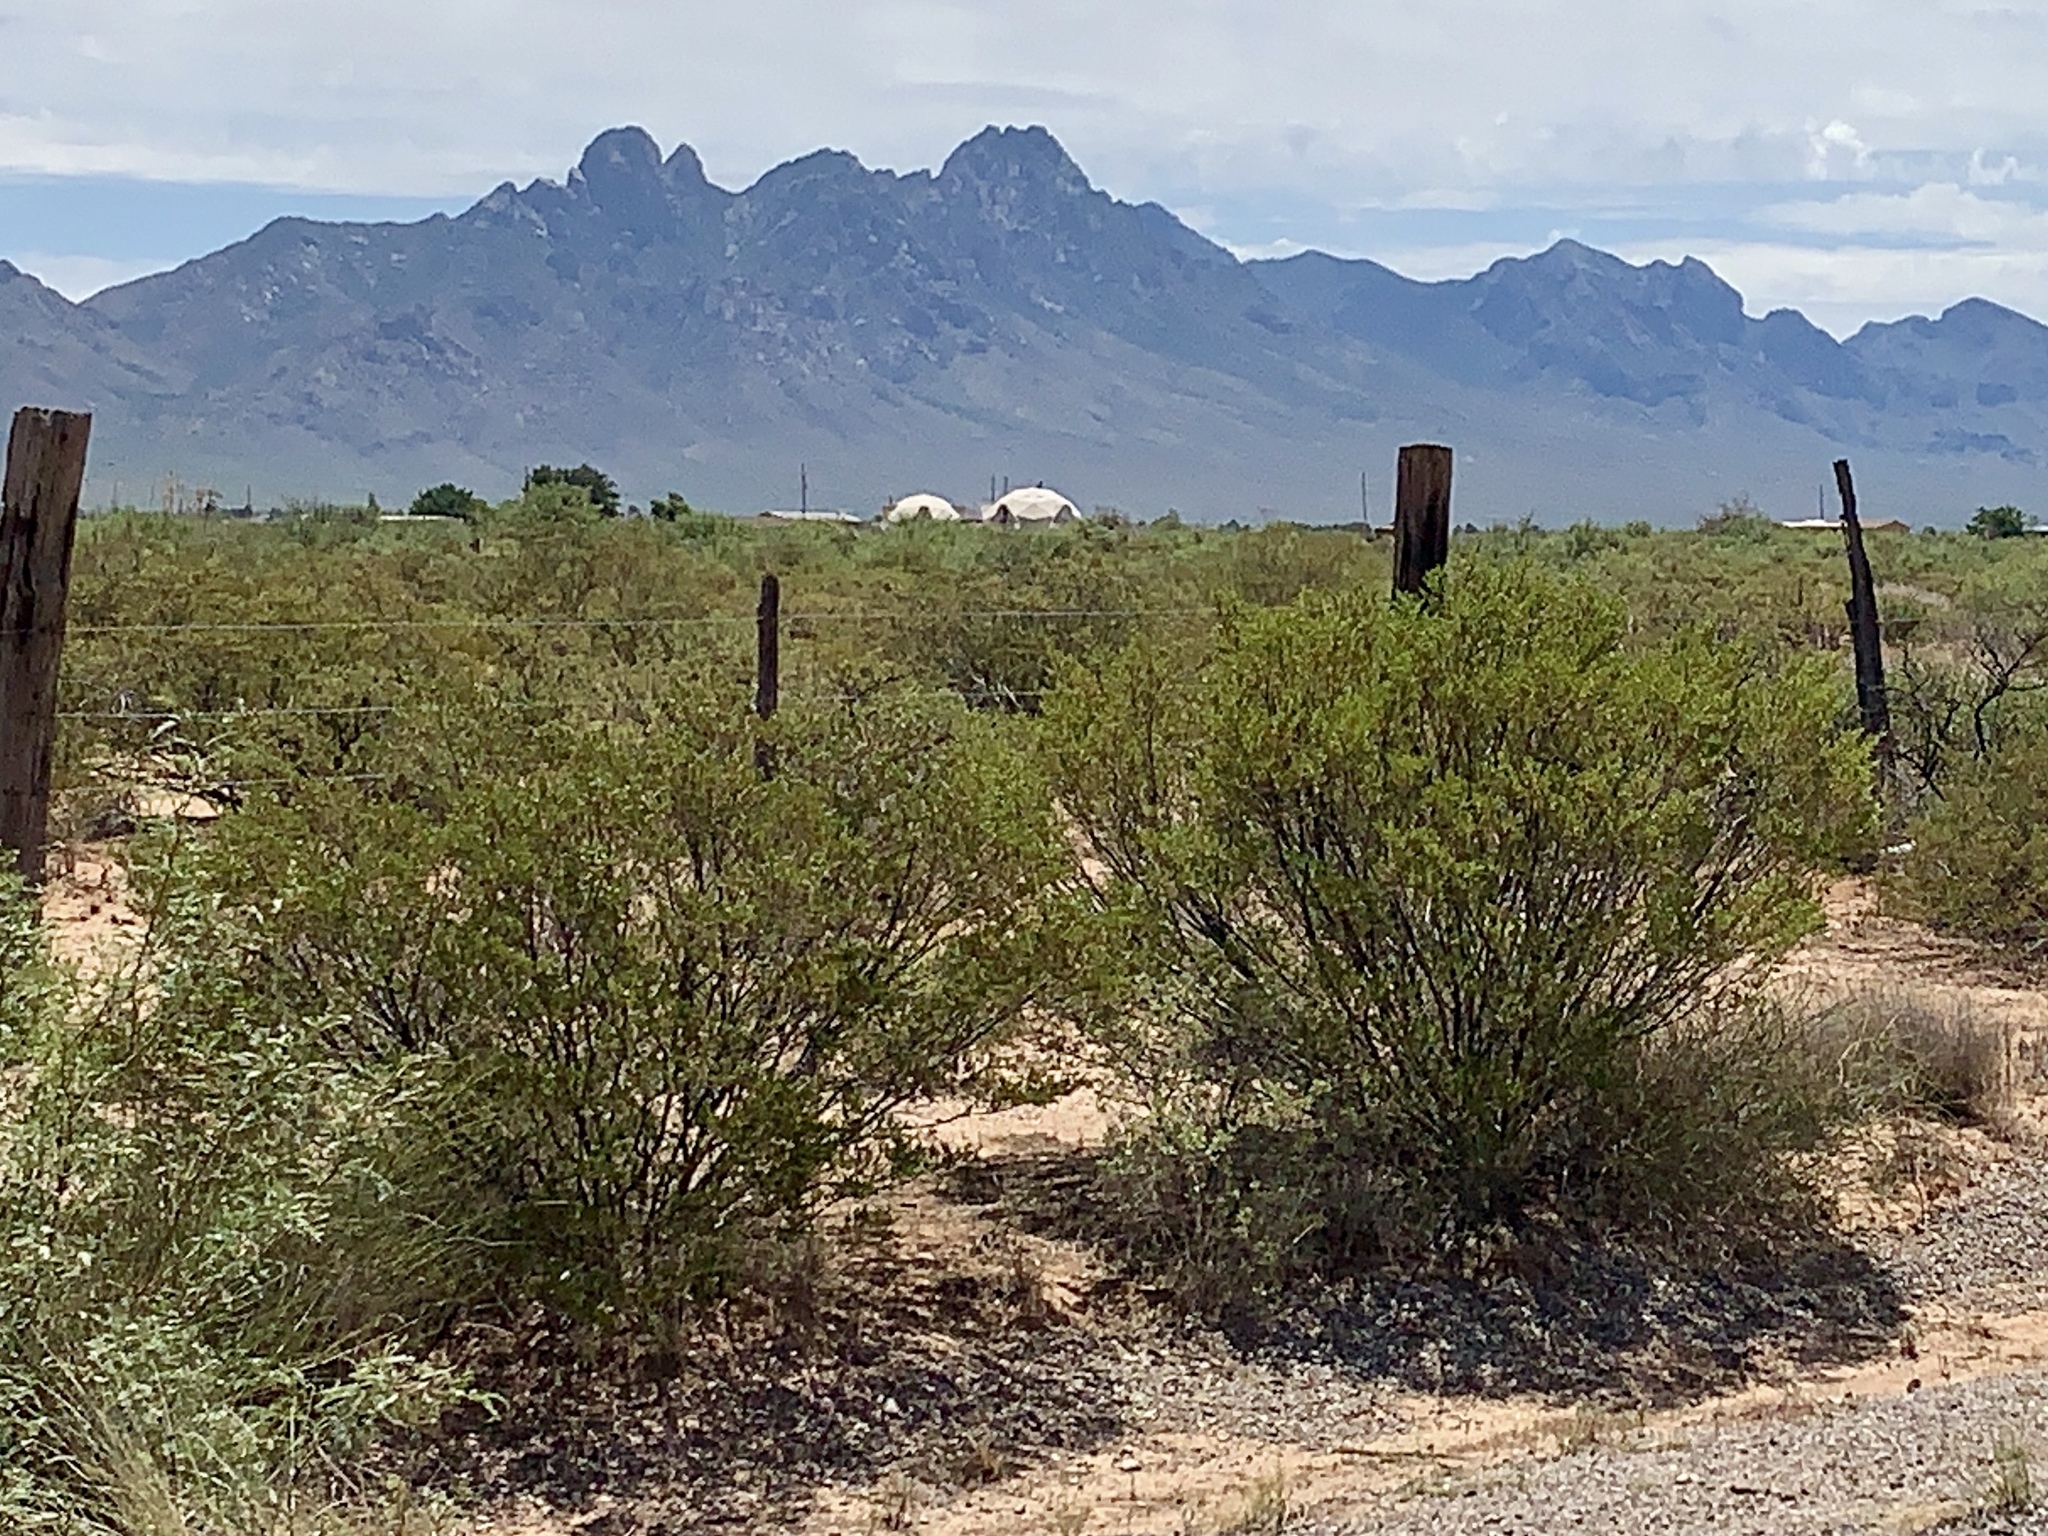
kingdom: Plantae
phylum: Tracheophyta
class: Magnoliopsida
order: Zygophyllales
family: Zygophyllaceae
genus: Larrea
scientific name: Larrea tridentata
